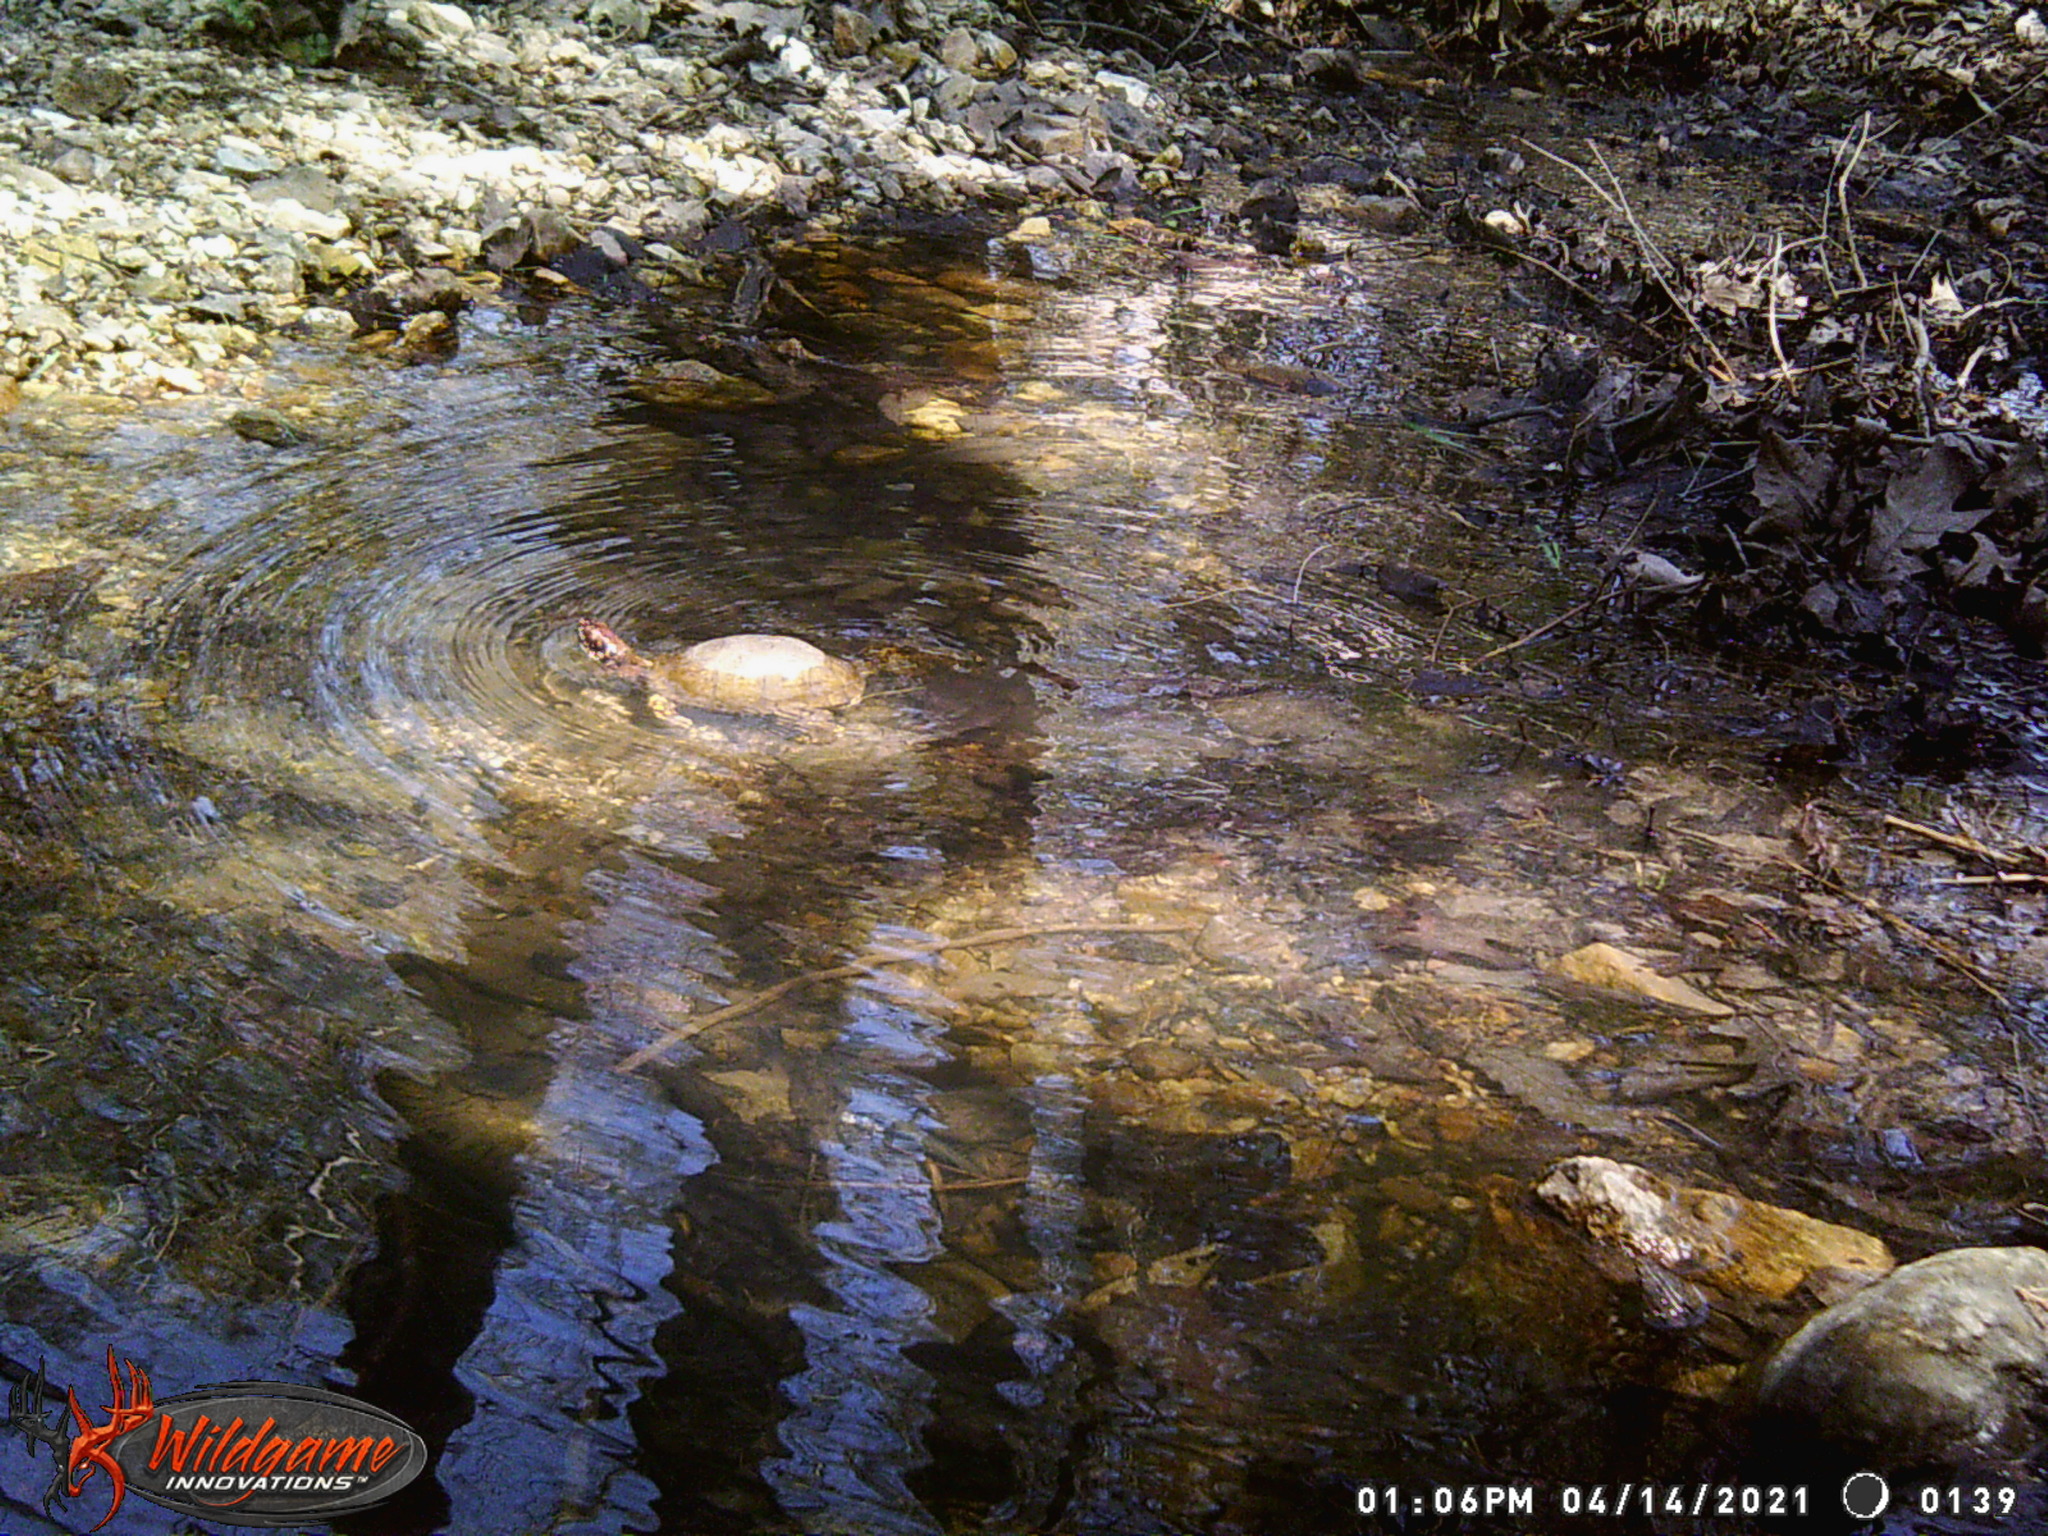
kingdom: Animalia
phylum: Chordata
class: Testudines
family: Emydidae
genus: Terrapene
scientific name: Terrapene carolina
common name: Common box turtle
